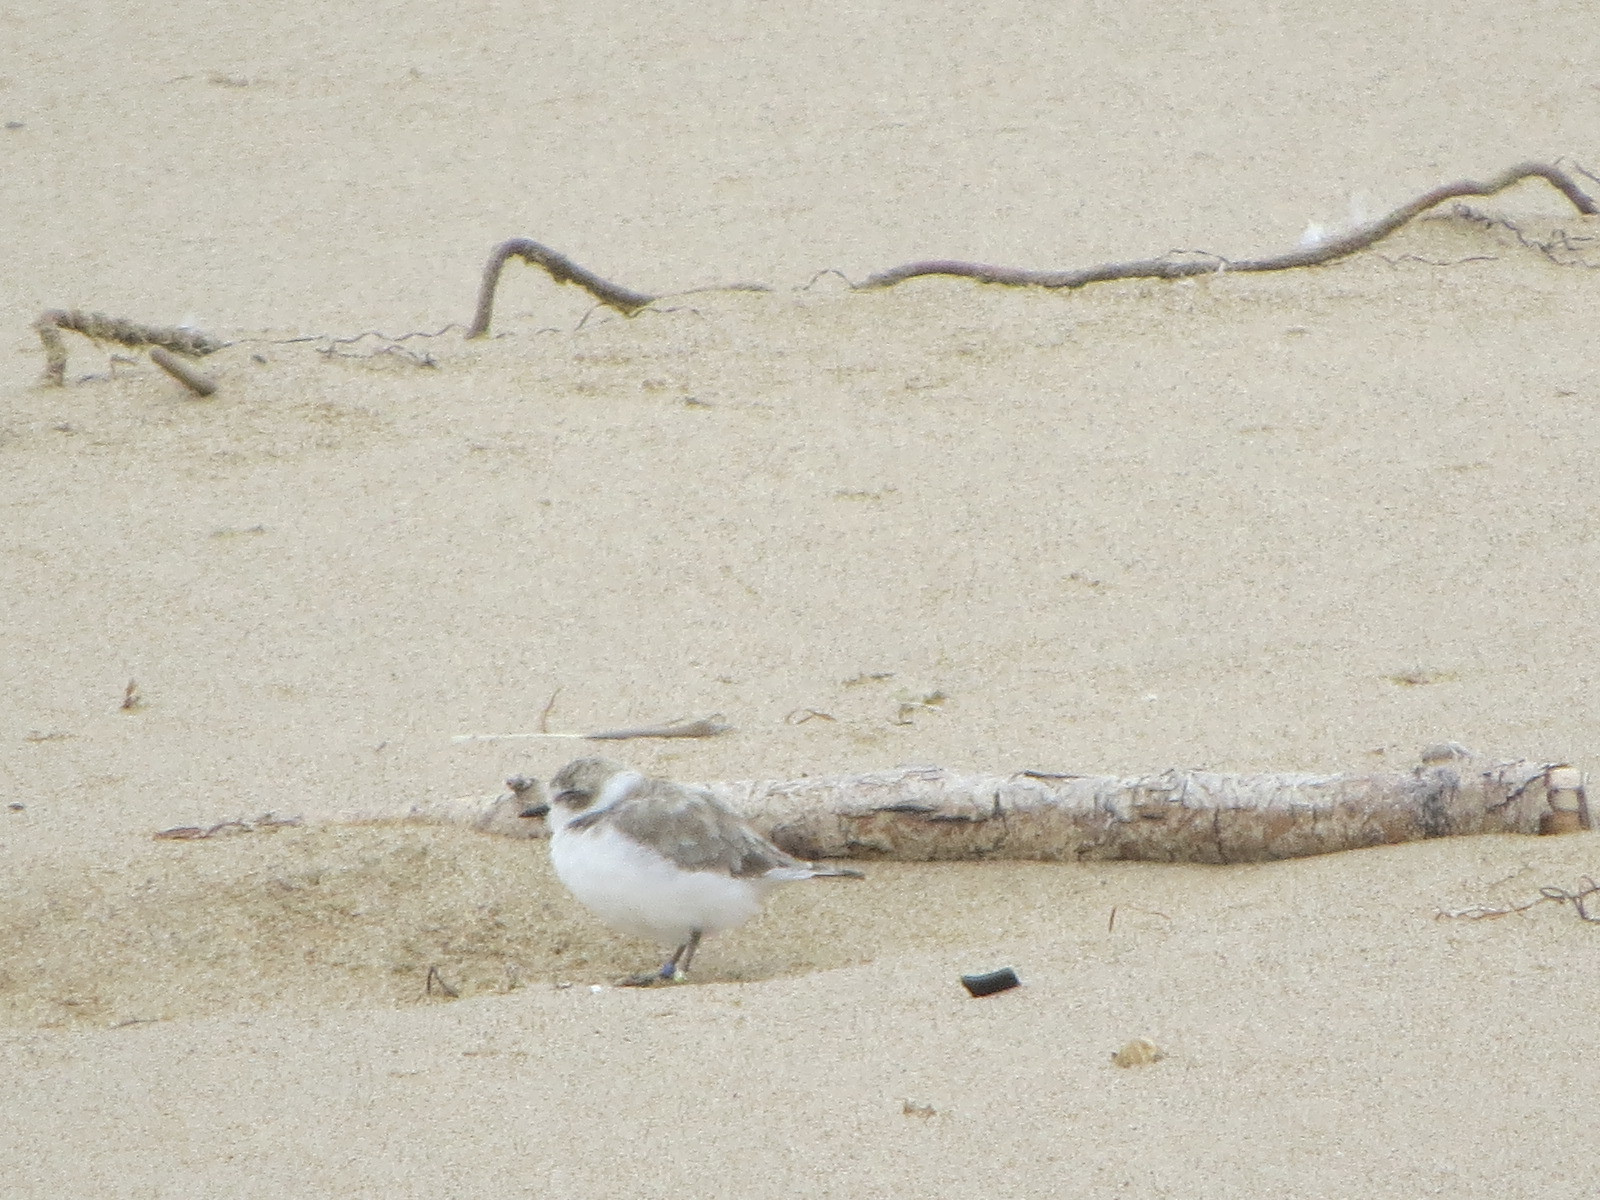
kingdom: Animalia
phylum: Chordata
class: Aves
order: Charadriiformes
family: Charadriidae
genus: Anarhynchus
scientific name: Anarhynchus
